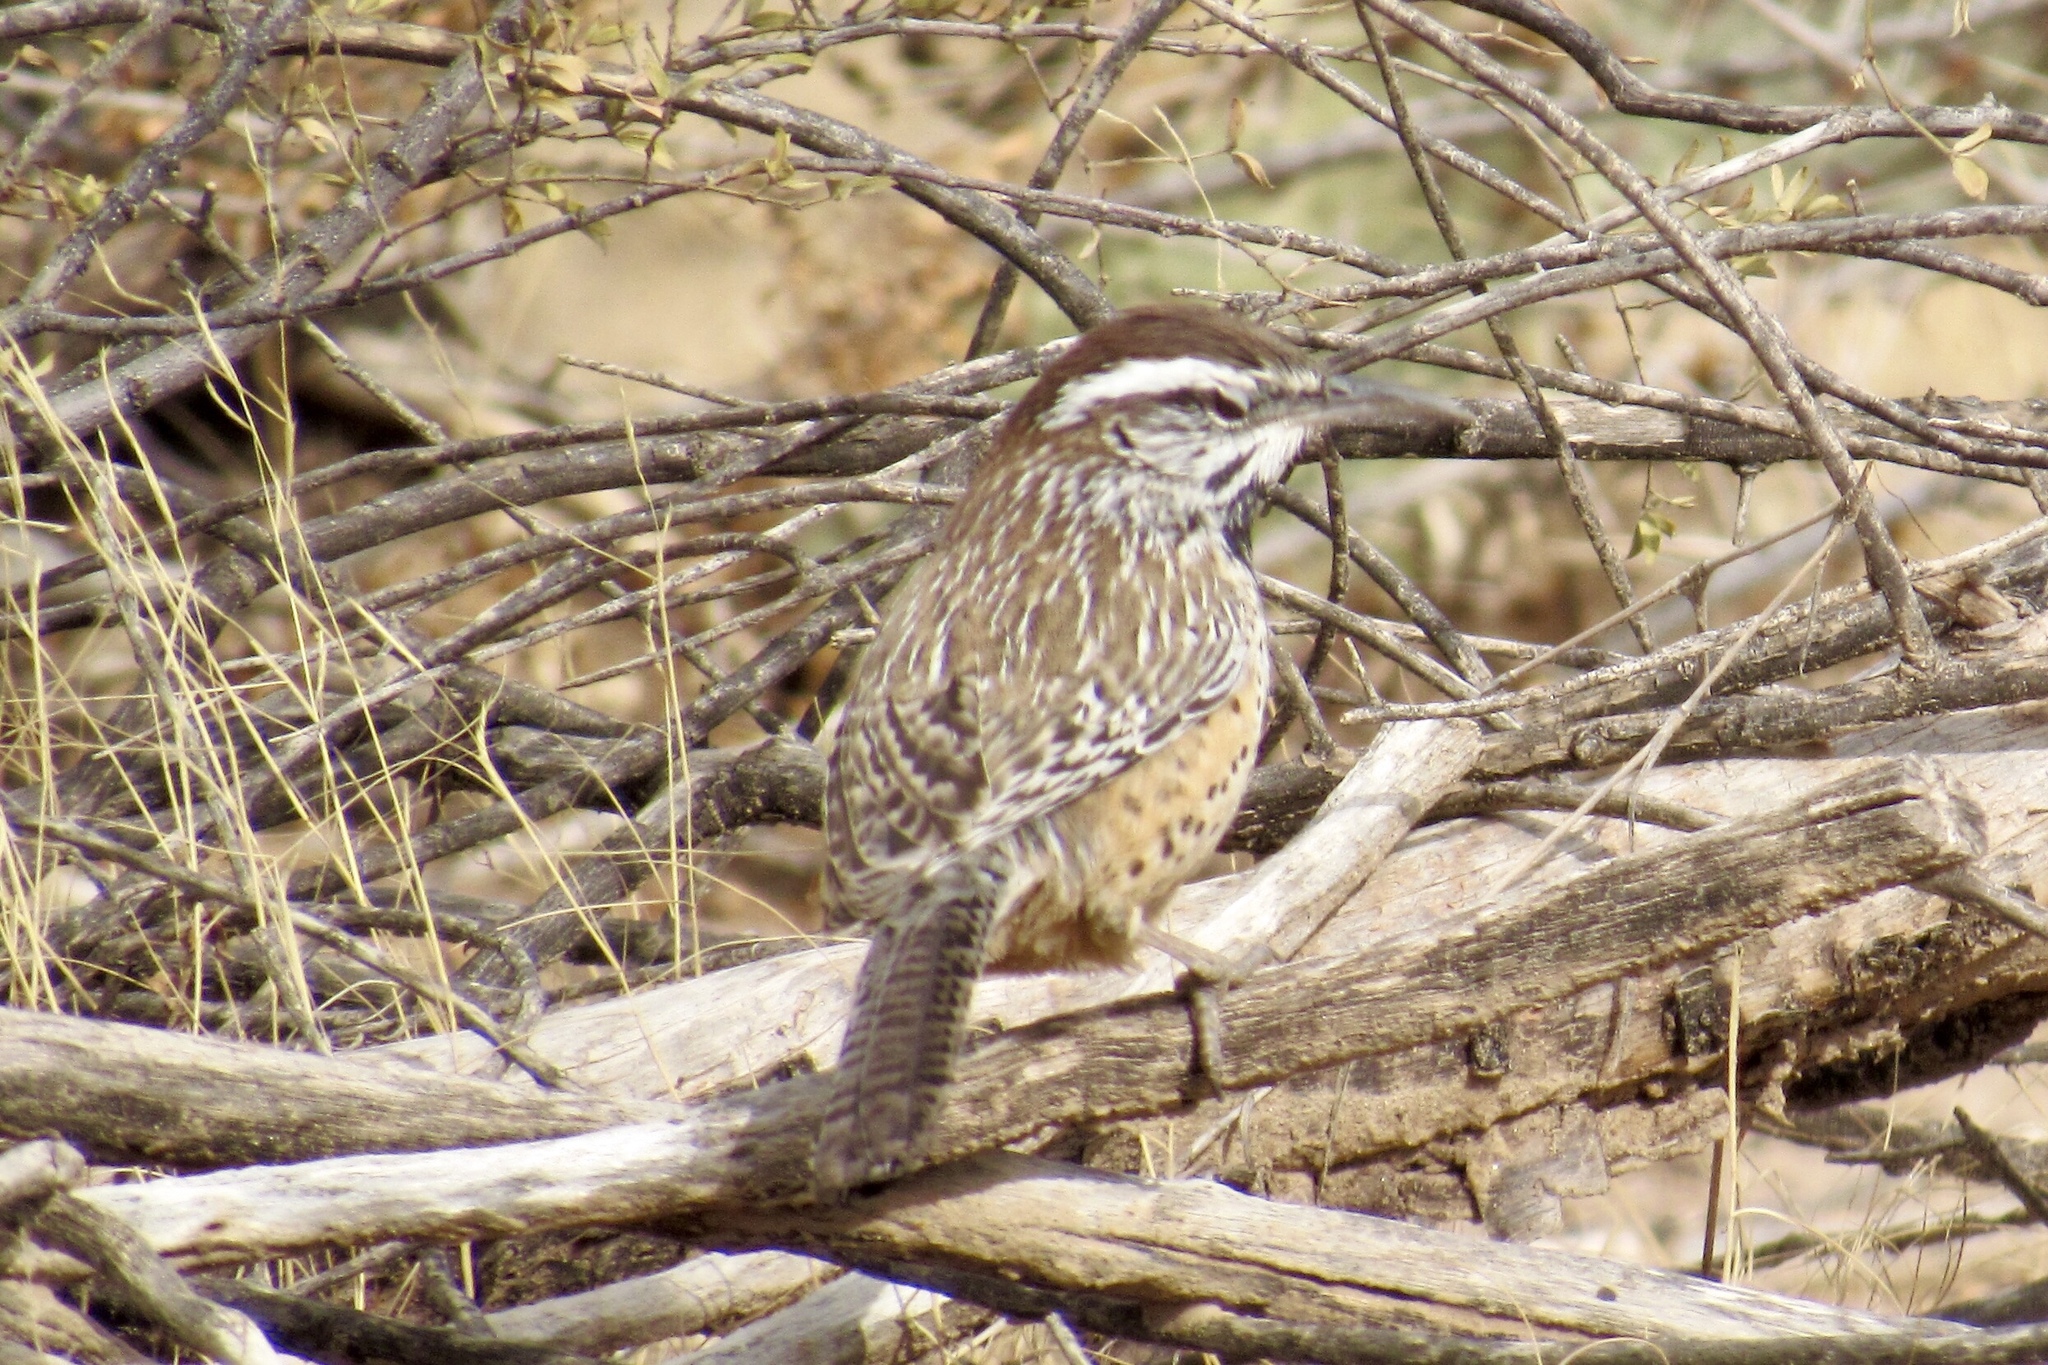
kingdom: Animalia
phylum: Chordata
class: Aves
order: Passeriformes
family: Troglodytidae
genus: Campylorhynchus
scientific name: Campylorhynchus brunneicapillus
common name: Cactus wren
